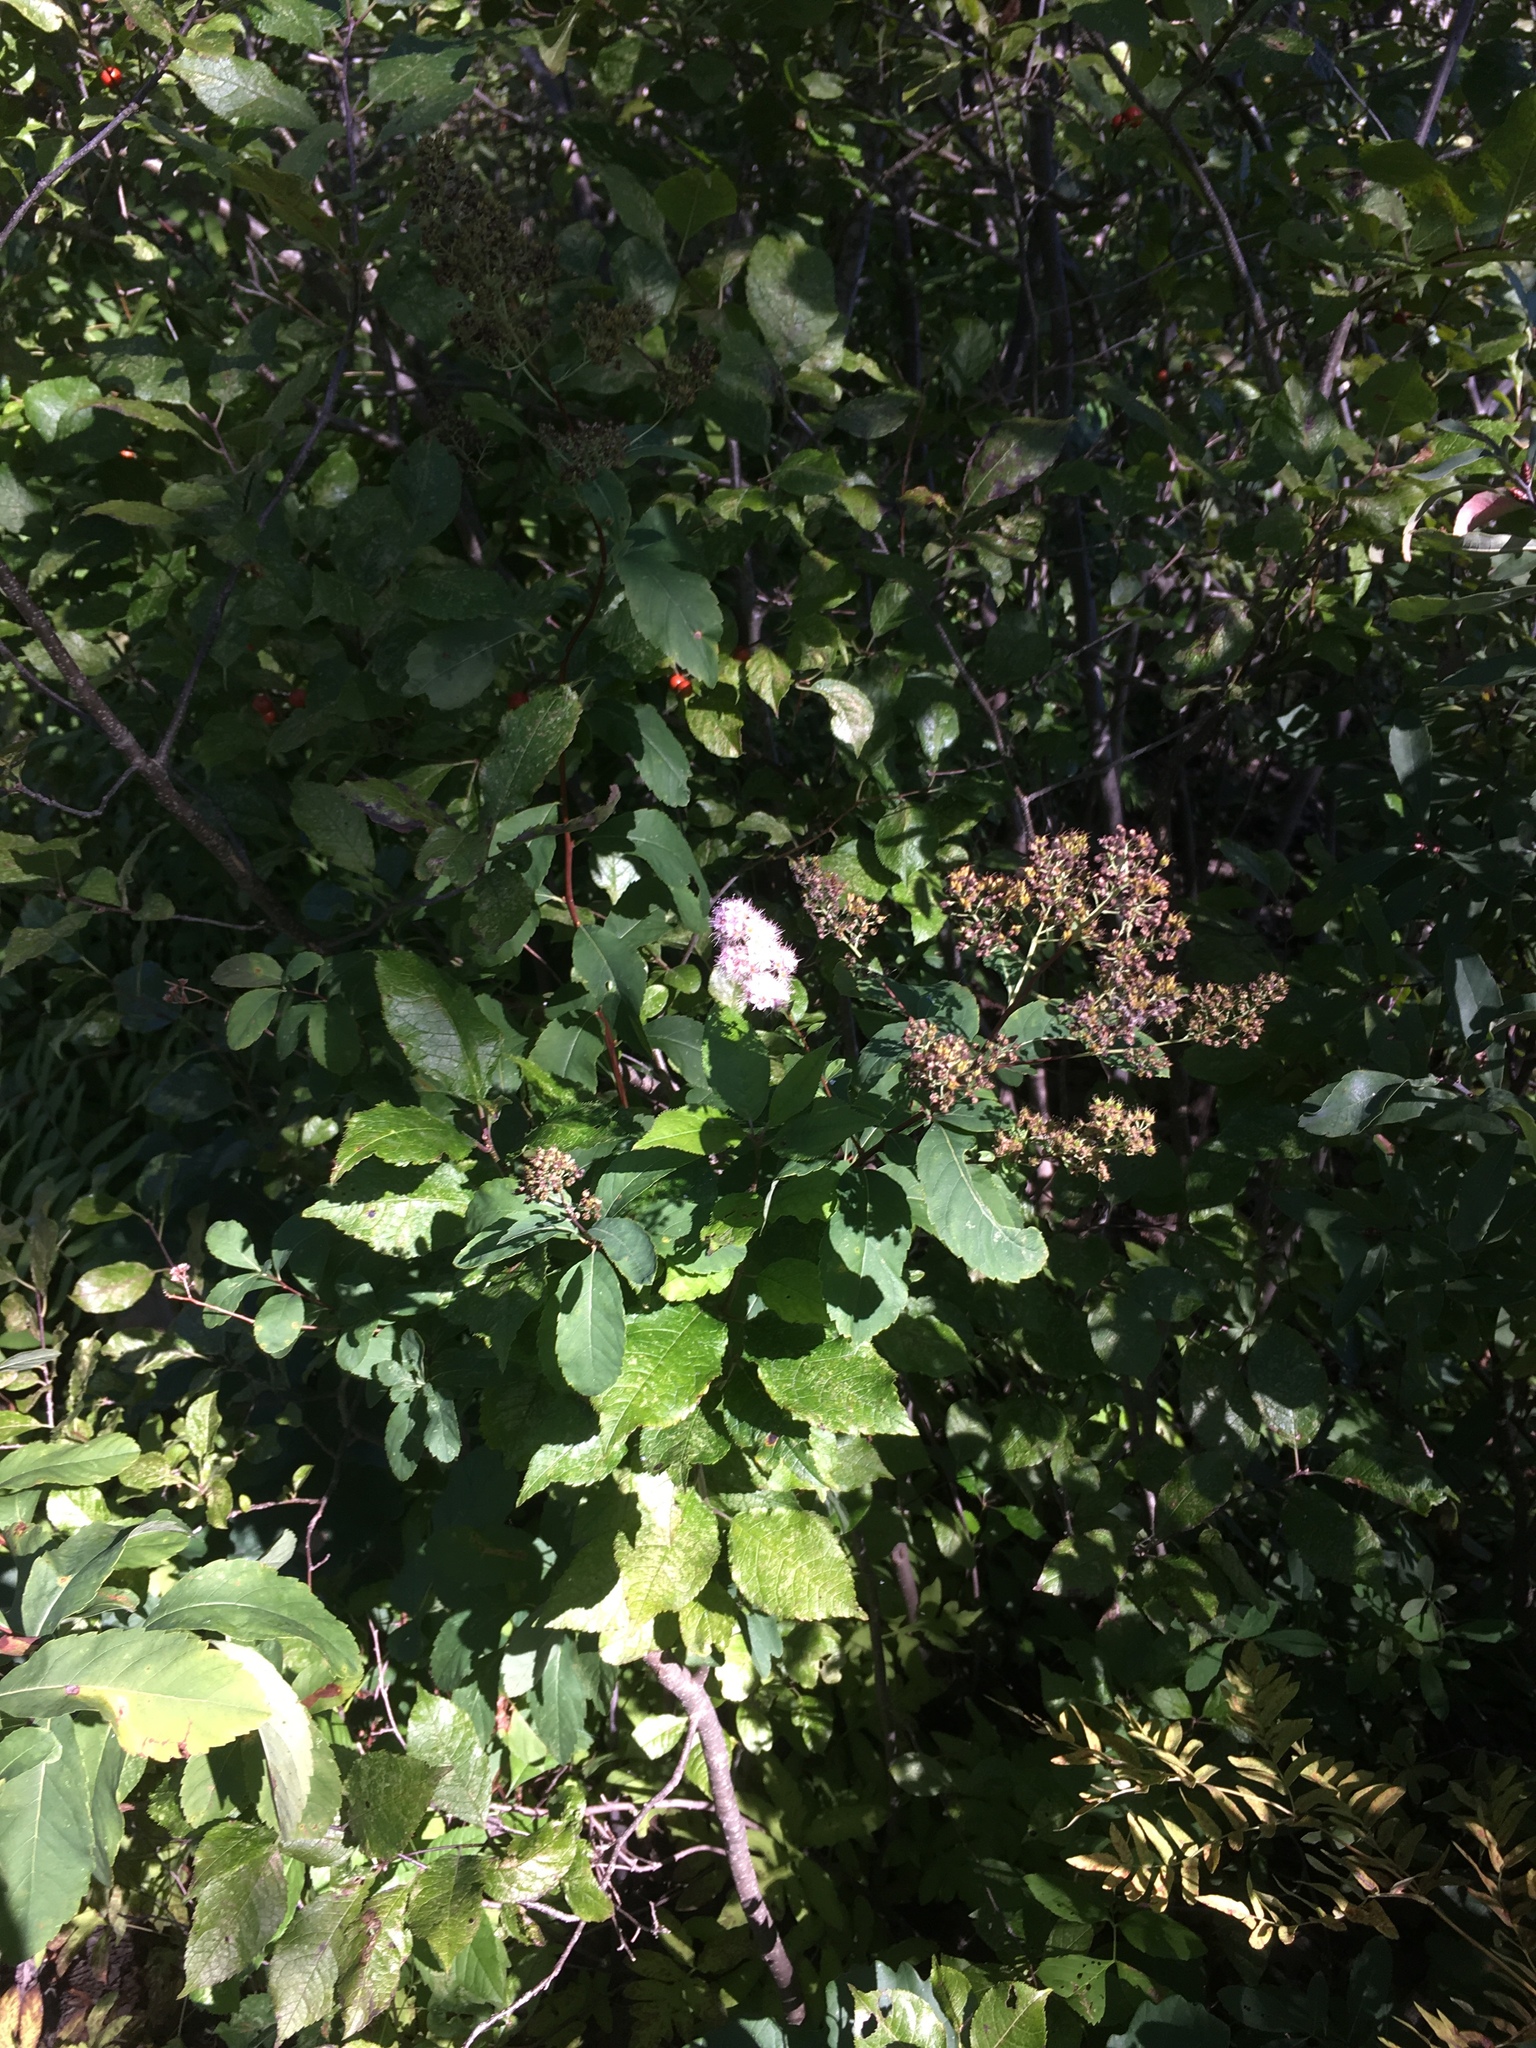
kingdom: Plantae
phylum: Tracheophyta
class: Magnoliopsida
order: Rosales
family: Rosaceae
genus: Spiraea
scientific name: Spiraea alba
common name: Pale bridewort
